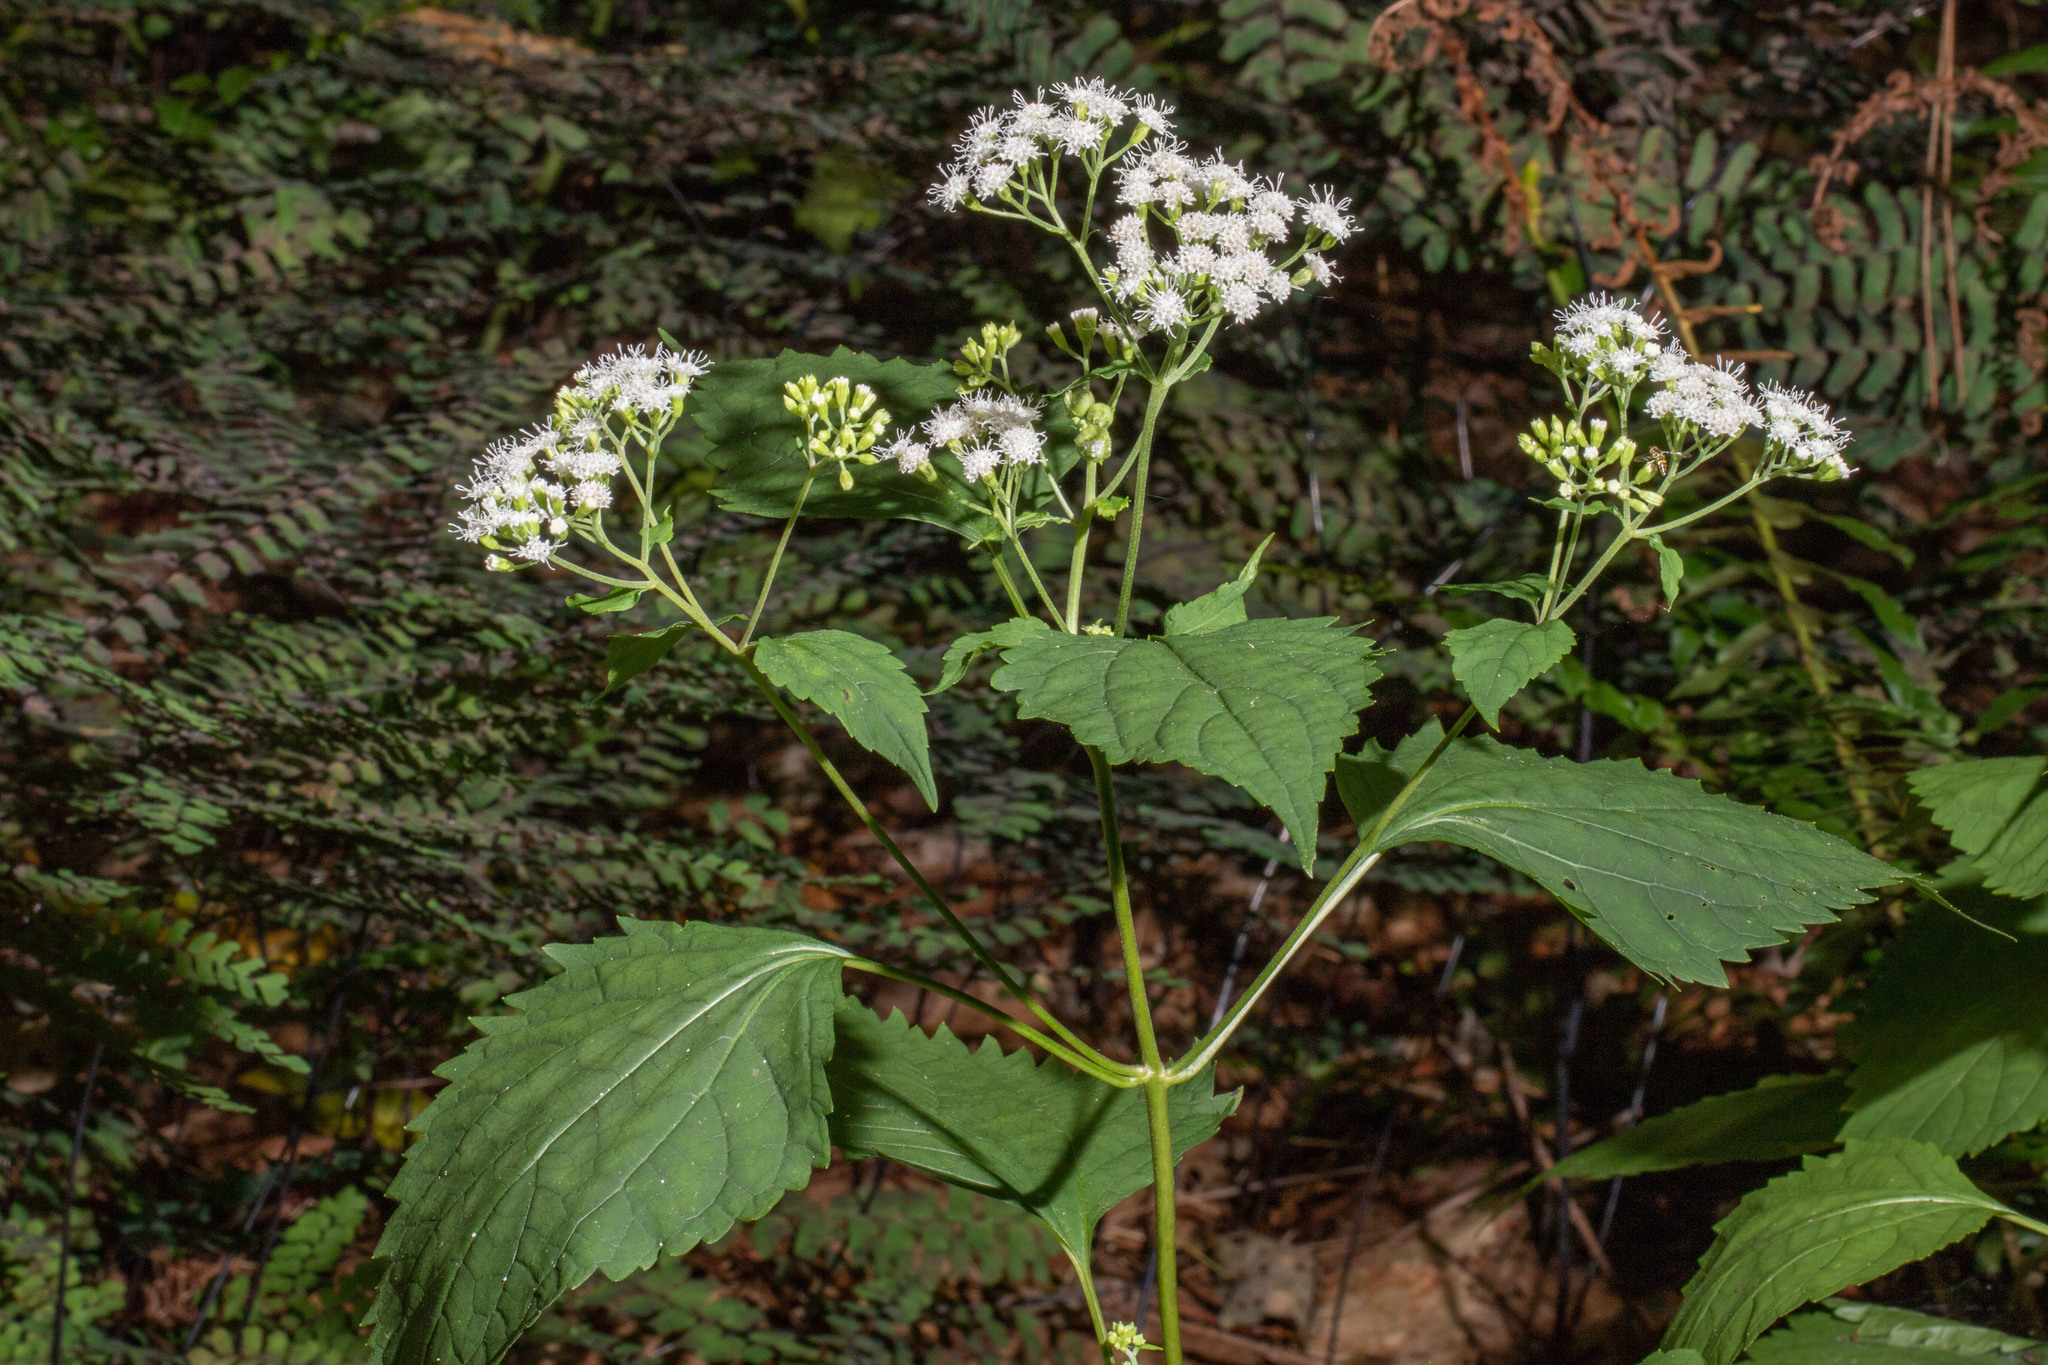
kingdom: Plantae
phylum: Tracheophyta
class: Magnoliopsida
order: Asterales
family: Asteraceae
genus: Ageratina
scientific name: Ageratina altissima
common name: White snakeroot
